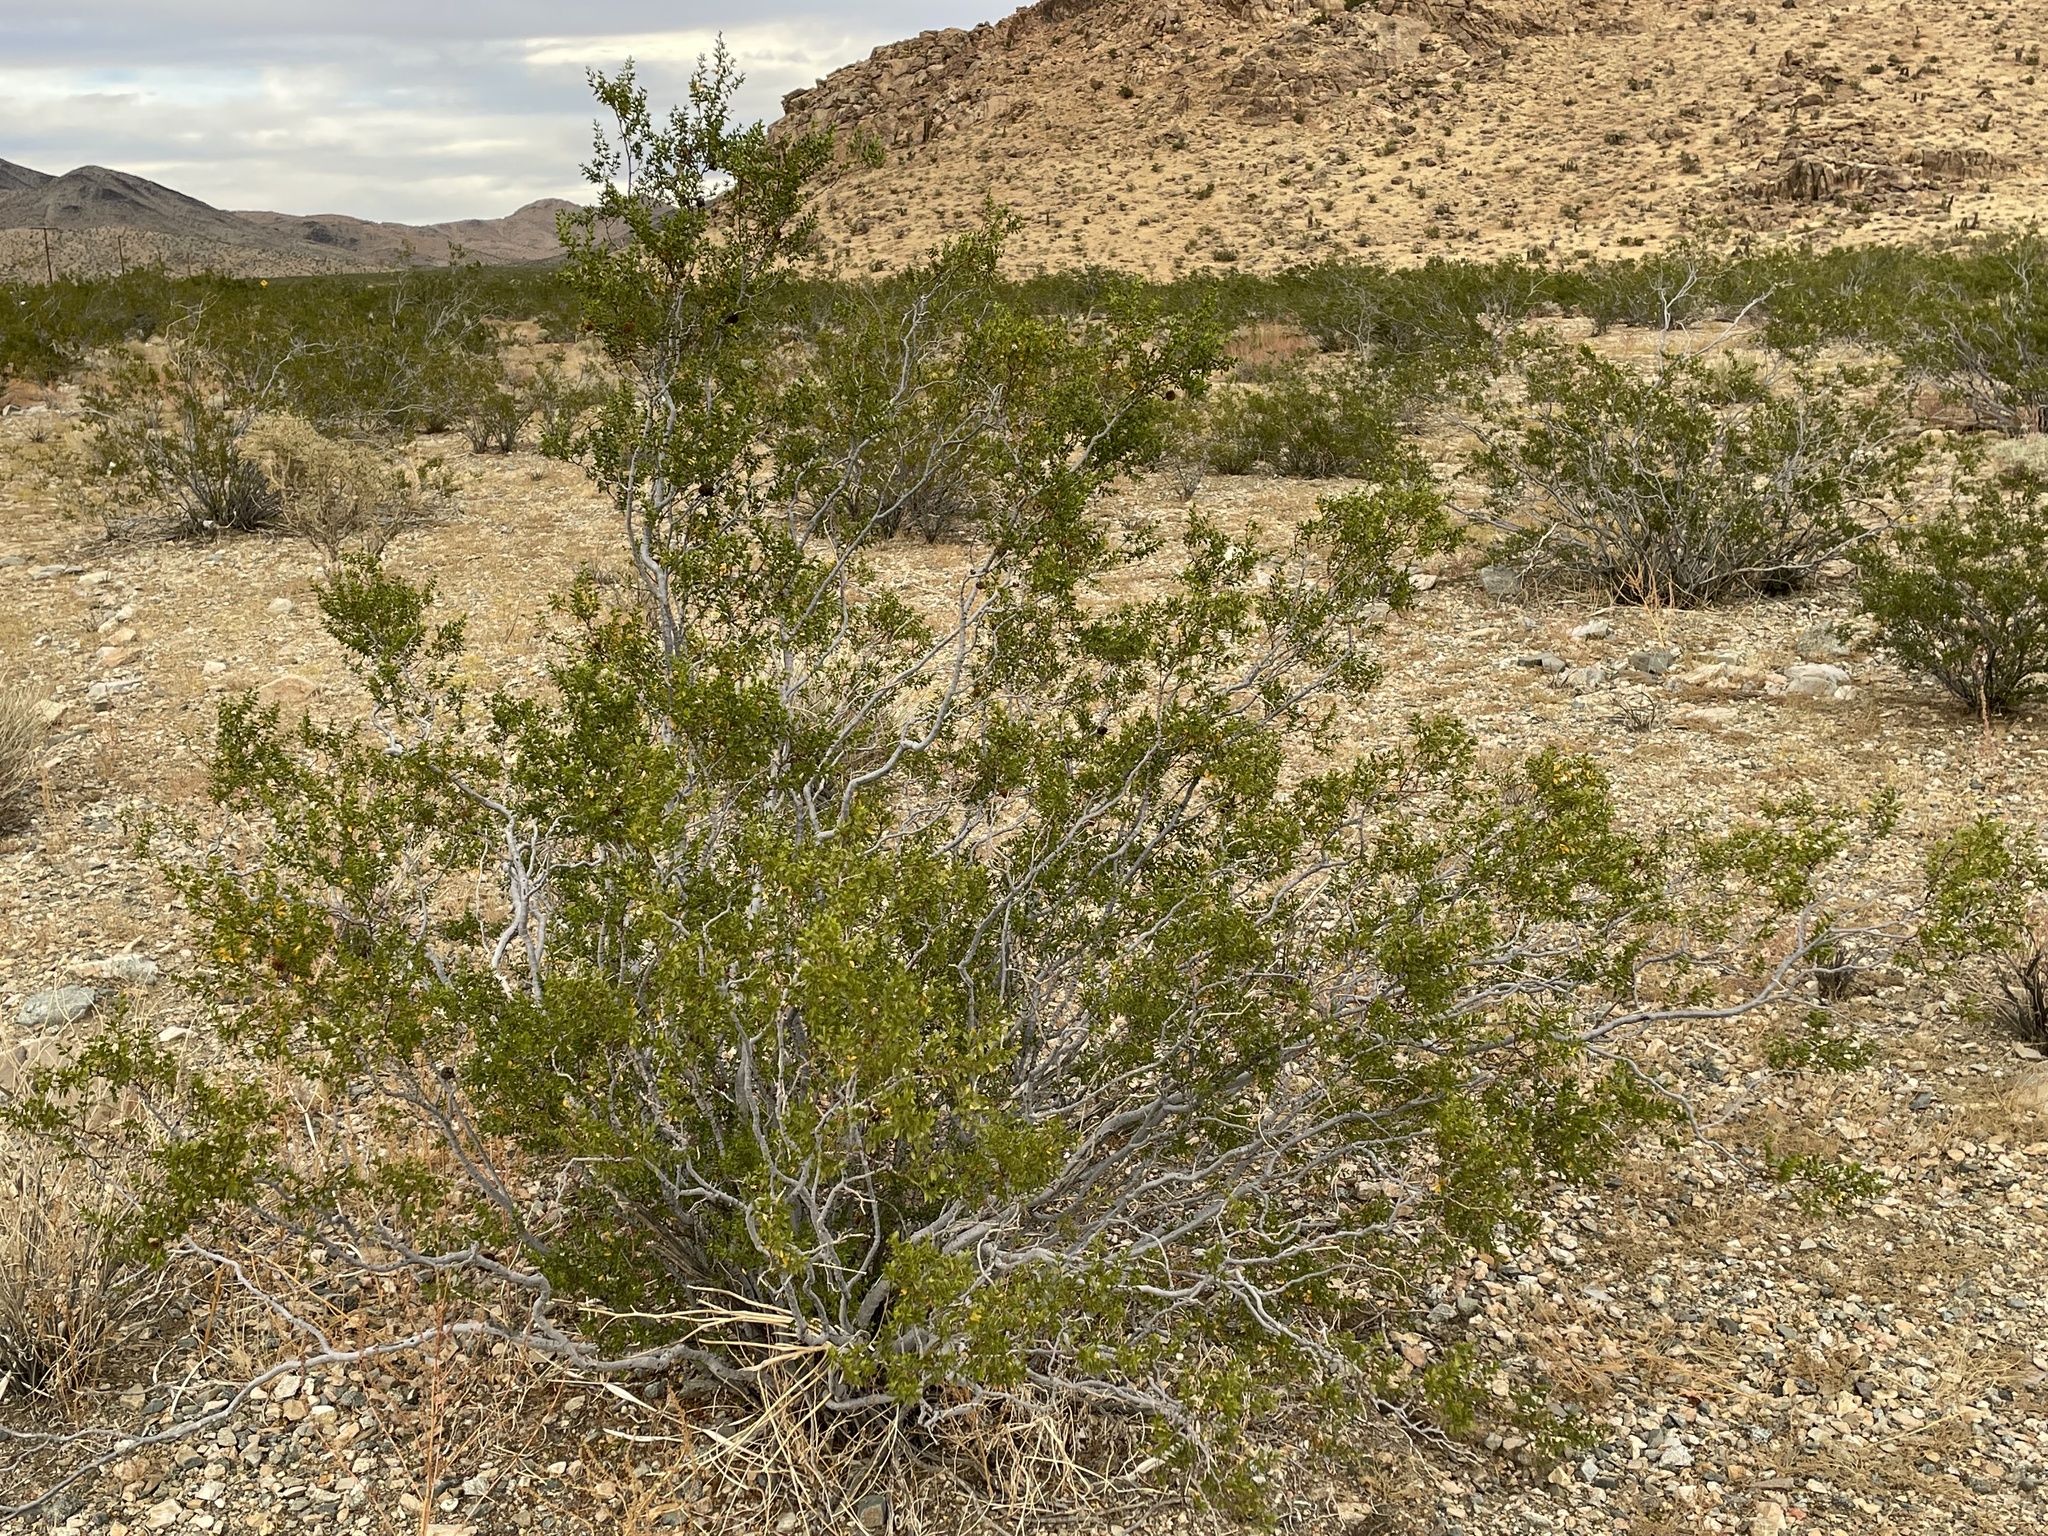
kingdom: Plantae
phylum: Tracheophyta
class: Magnoliopsida
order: Zygophyllales
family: Zygophyllaceae
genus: Larrea
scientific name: Larrea tridentata
